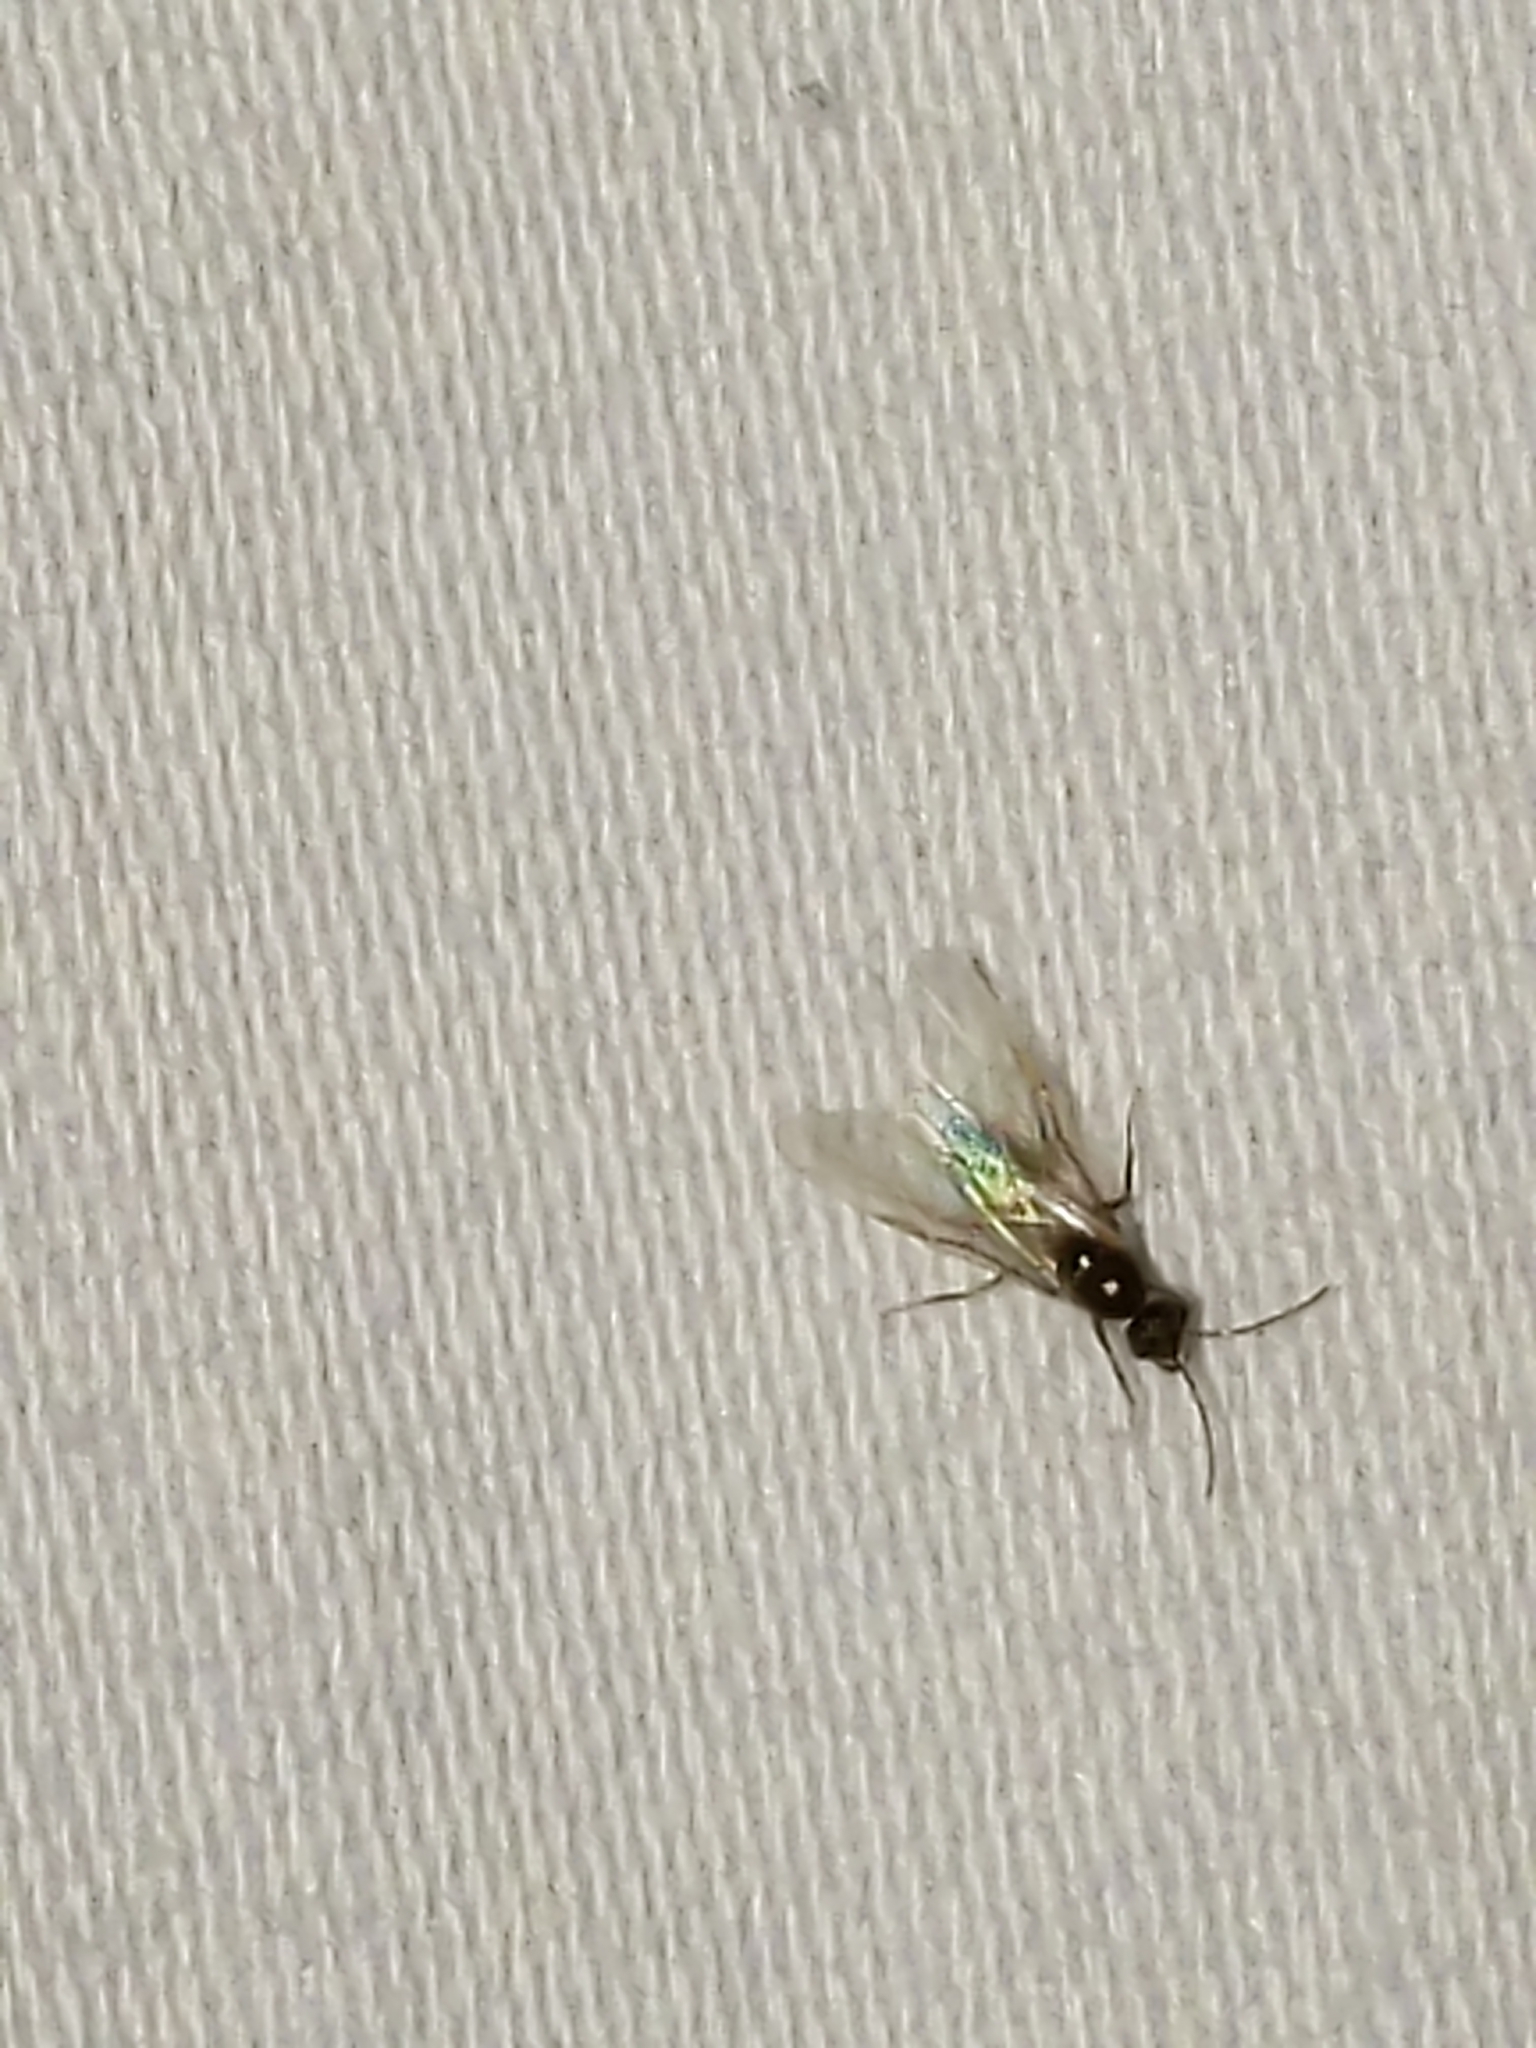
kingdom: Animalia
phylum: Arthropoda
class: Insecta
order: Hymenoptera
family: Formicidae
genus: Lasius
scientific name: Lasius
